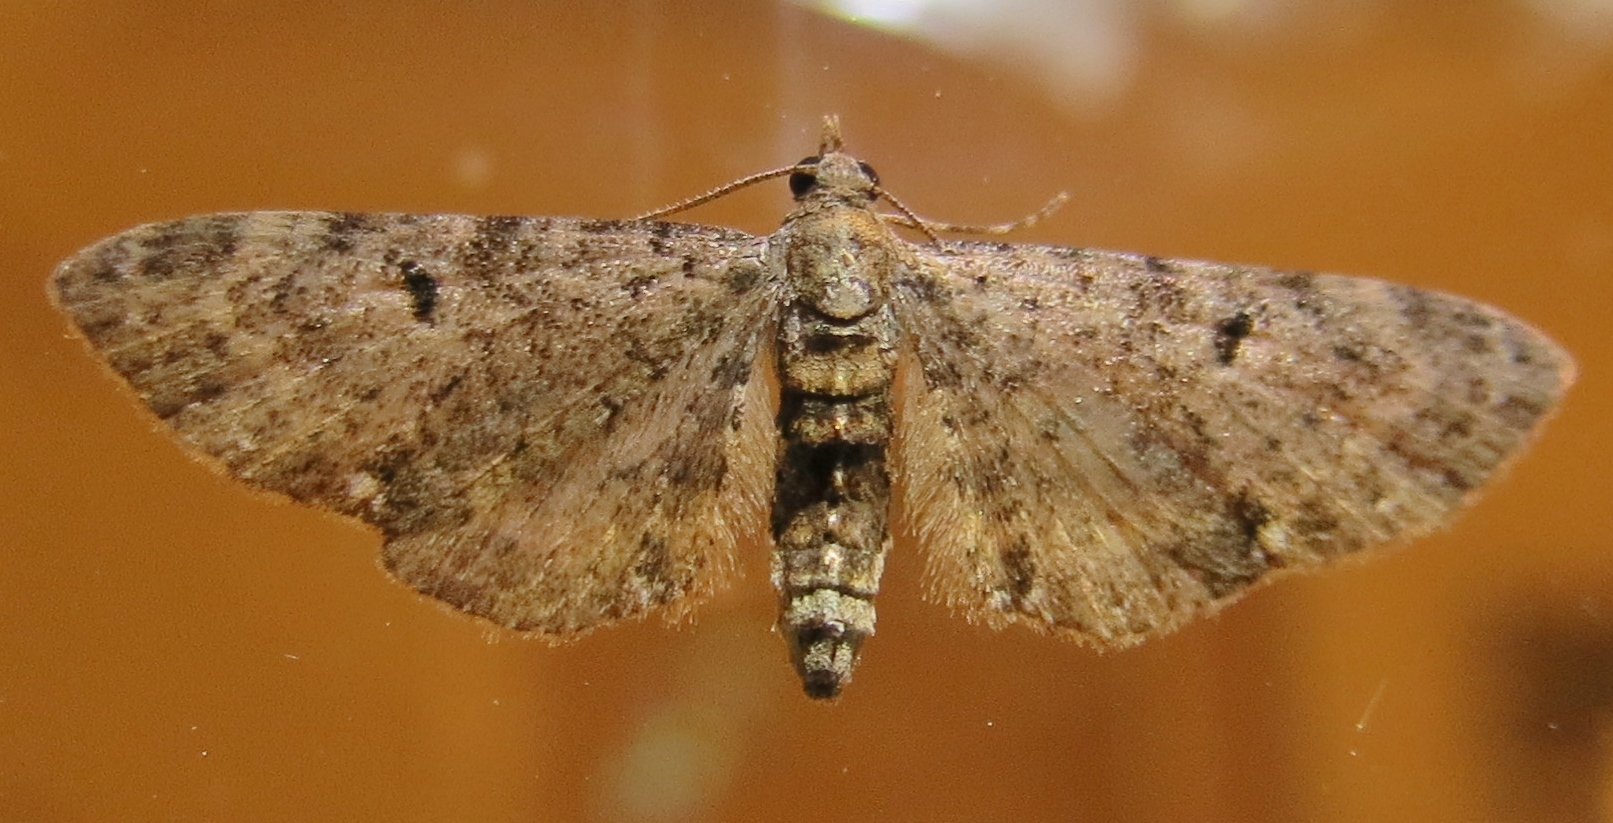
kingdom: Animalia
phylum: Arthropoda
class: Insecta
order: Lepidoptera
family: Geometridae
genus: Eupithecia
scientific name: Eupithecia miserulata
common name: Common eupithecia
